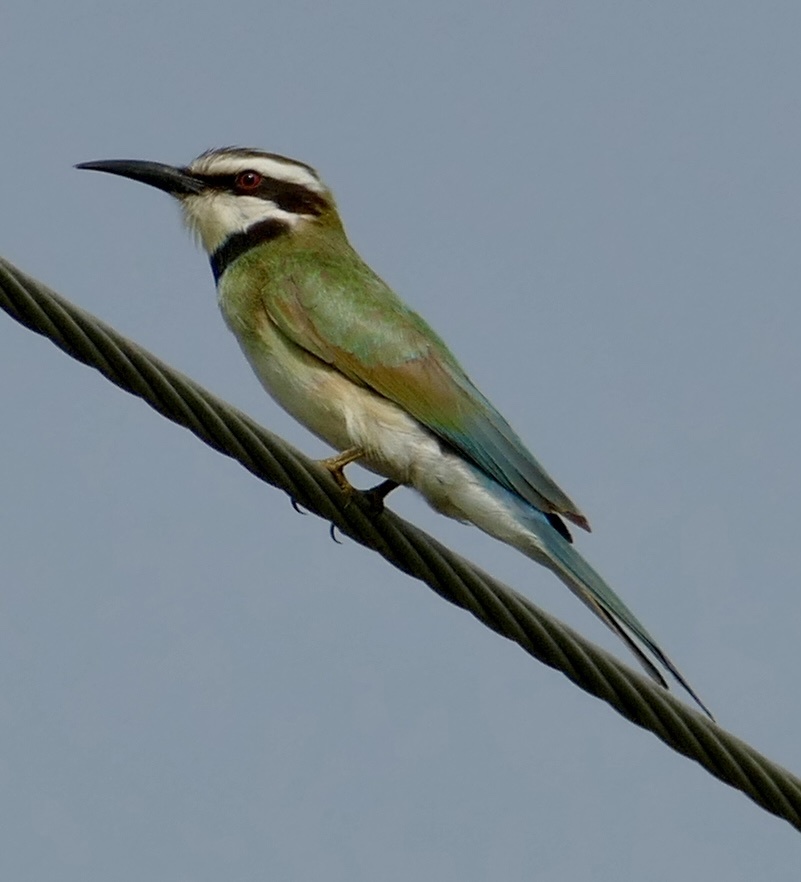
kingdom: Animalia
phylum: Chordata
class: Aves
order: Coraciiformes
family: Meropidae
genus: Merops
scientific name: Merops albicollis
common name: White-throated bee-eater
